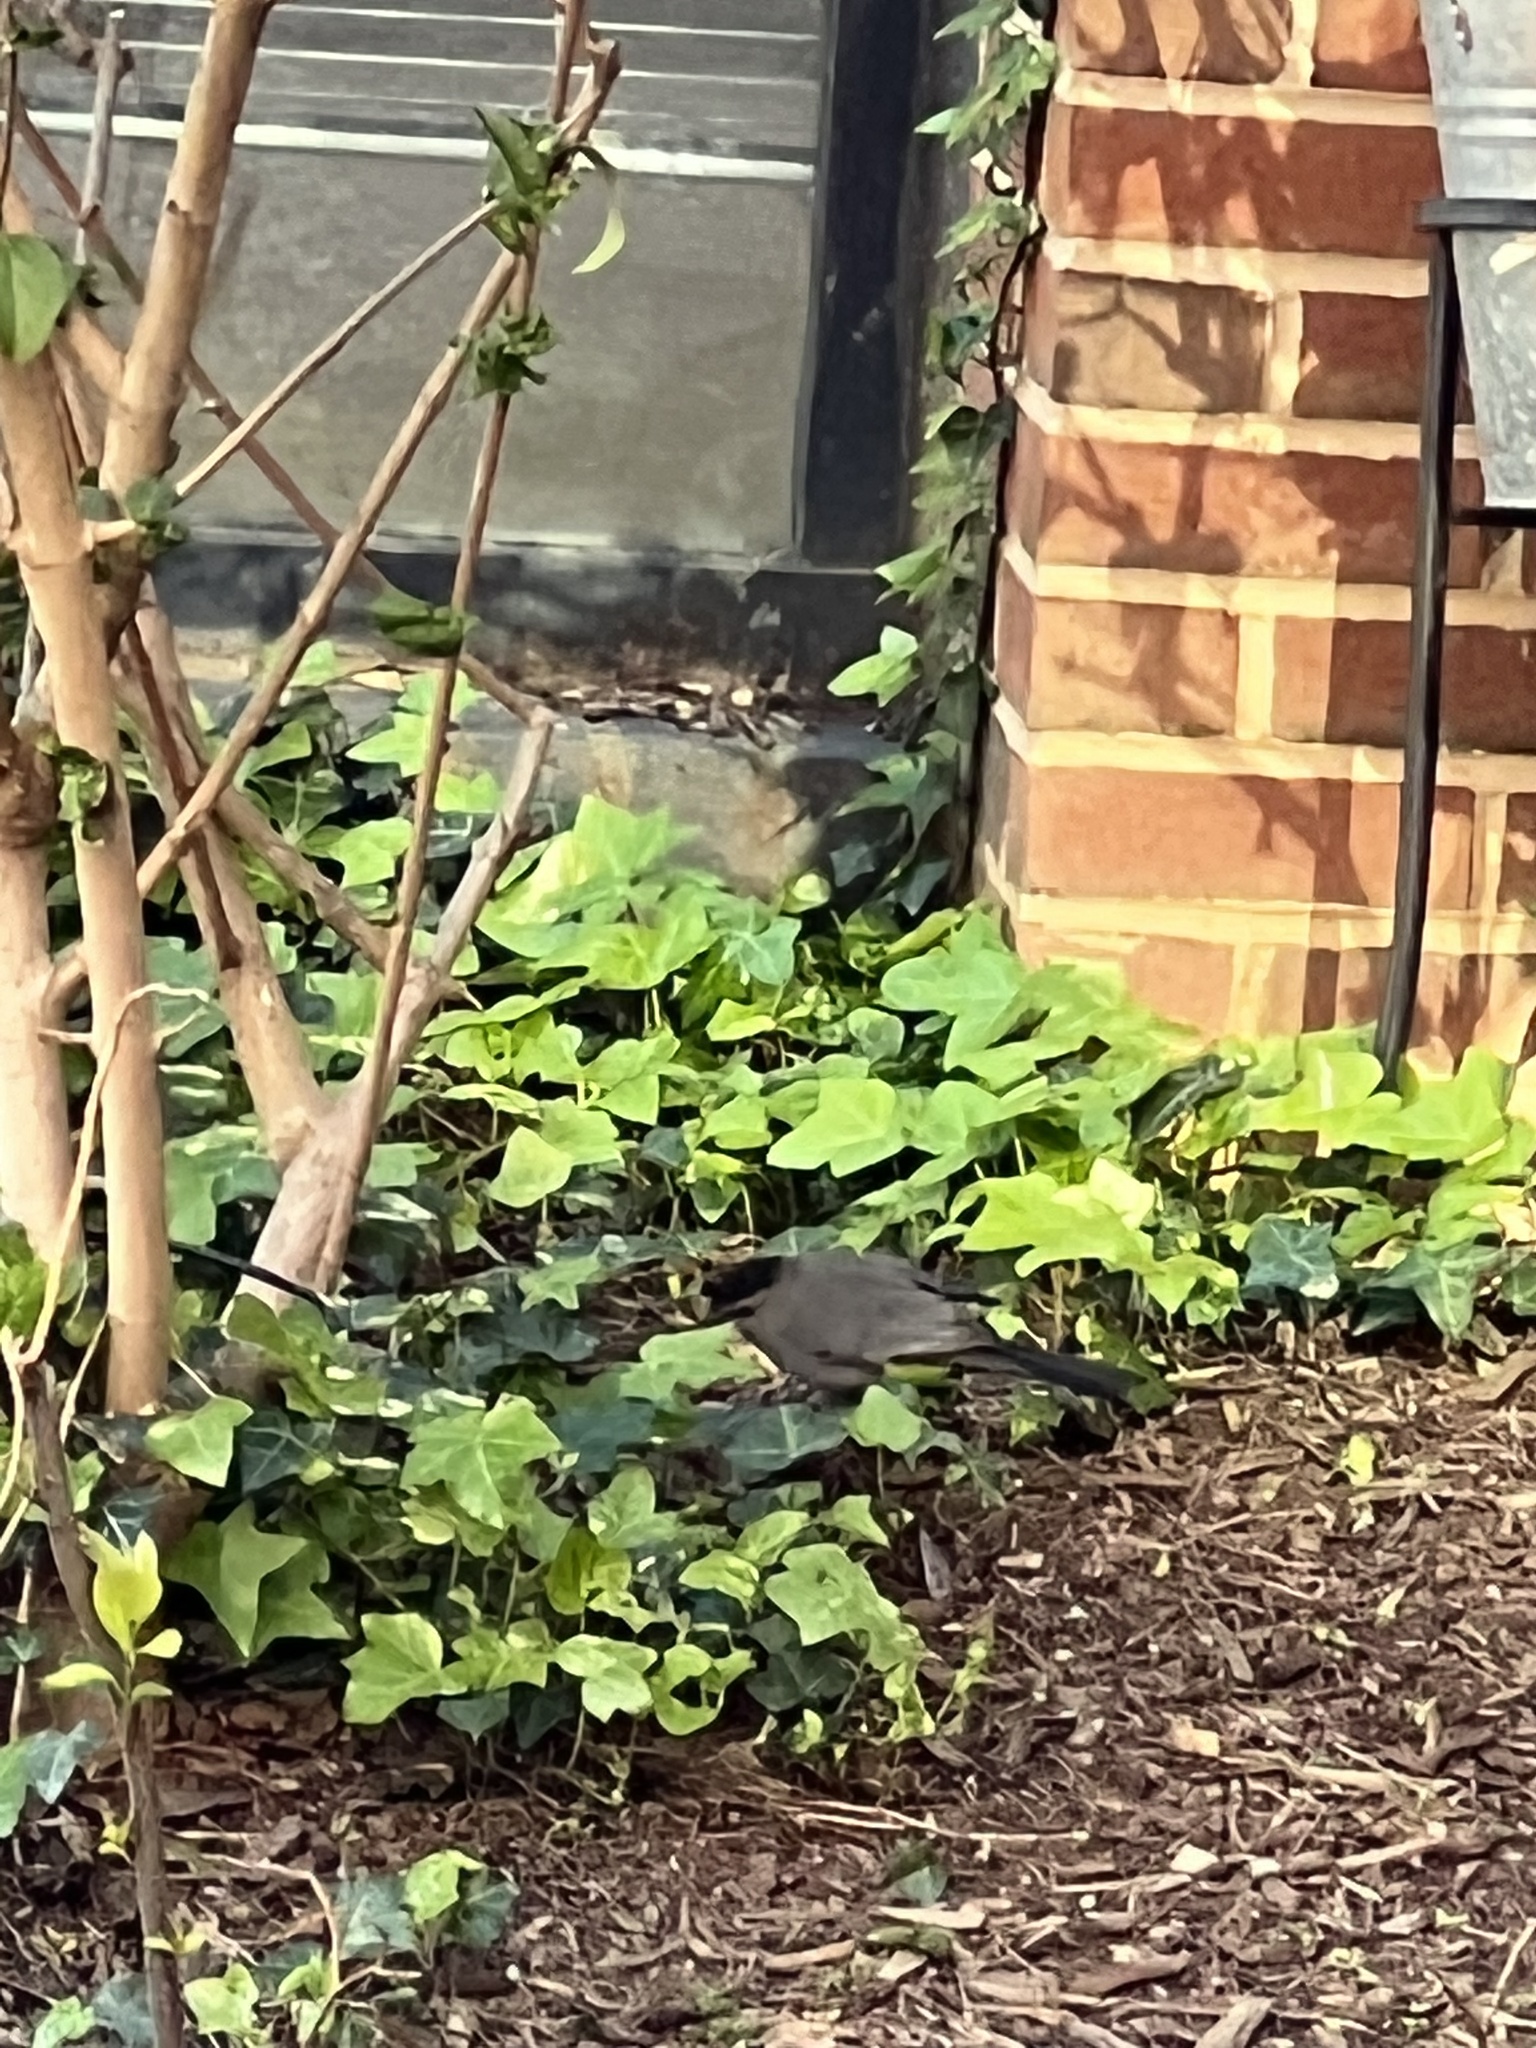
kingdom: Animalia
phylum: Chordata
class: Aves
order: Passeriformes
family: Mimidae
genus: Dumetella
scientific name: Dumetella carolinensis
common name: Gray catbird
